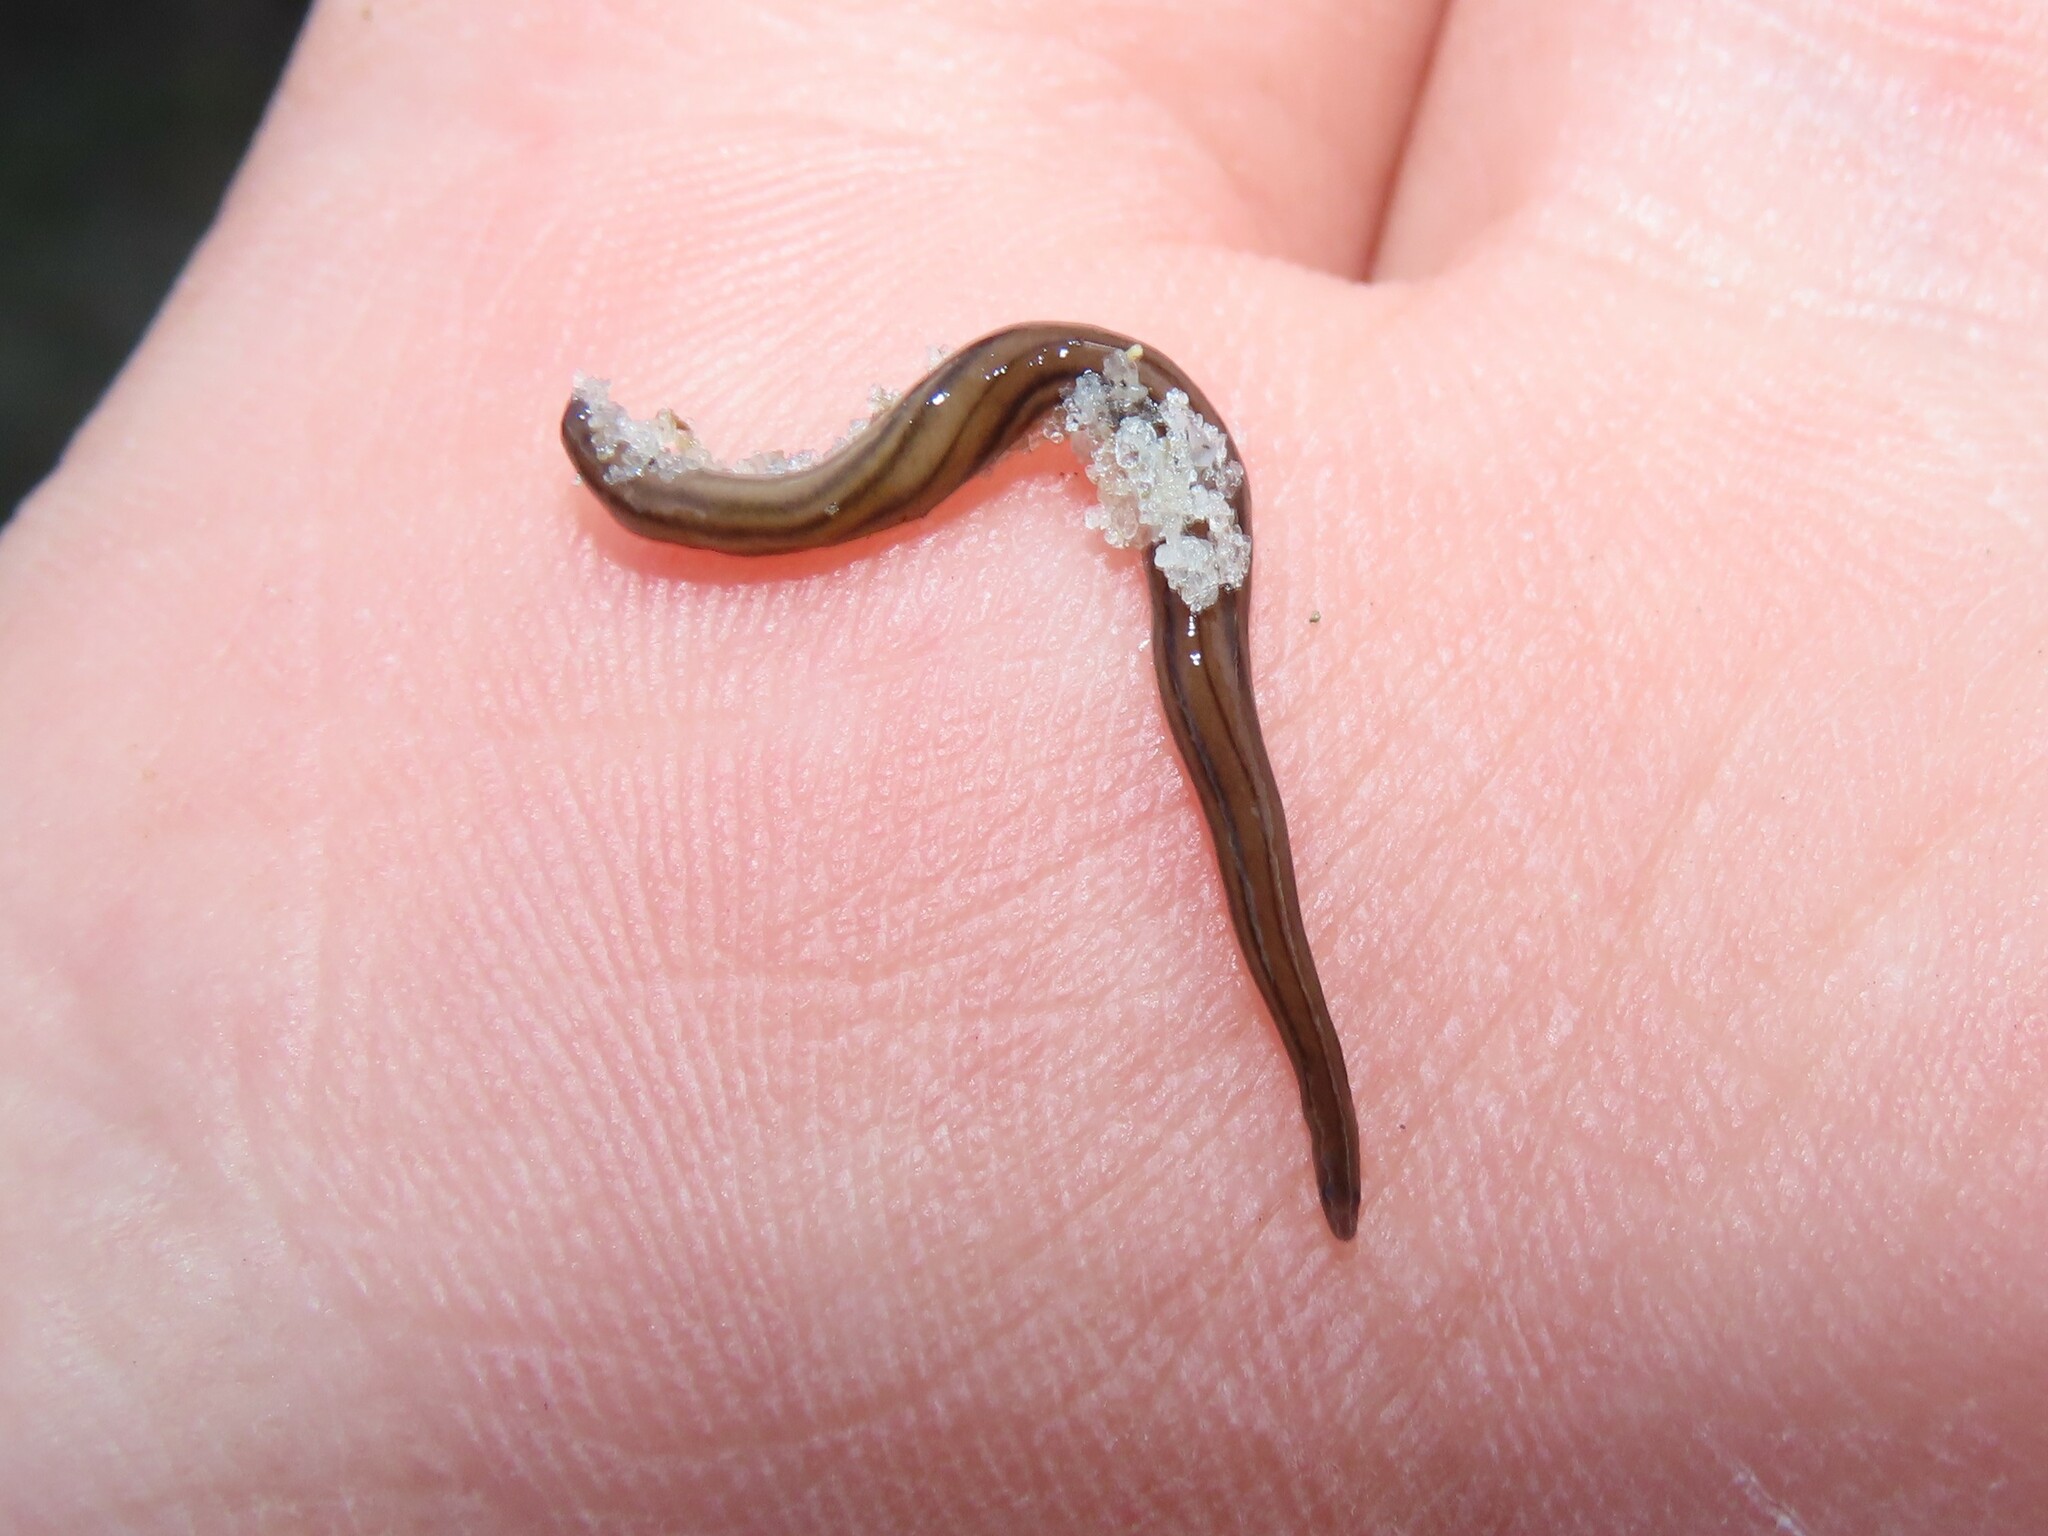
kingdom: Animalia
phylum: Platyhelminthes
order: Tricladida
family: Geoplanidae
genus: Dolichoplana
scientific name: Dolichoplana carvalhoi
